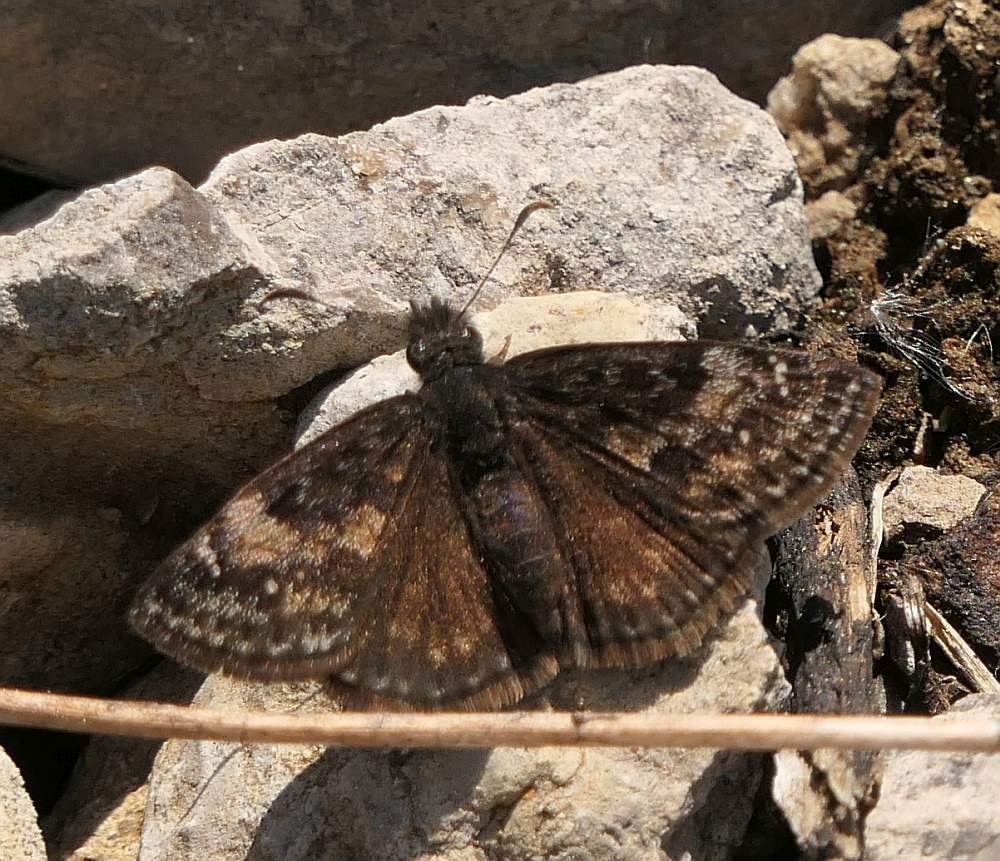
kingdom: Animalia
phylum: Arthropoda
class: Insecta
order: Lepidoptera
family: Hesperiidae
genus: Erynnis
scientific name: Erynnis lucilius
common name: Columbine duskywing
